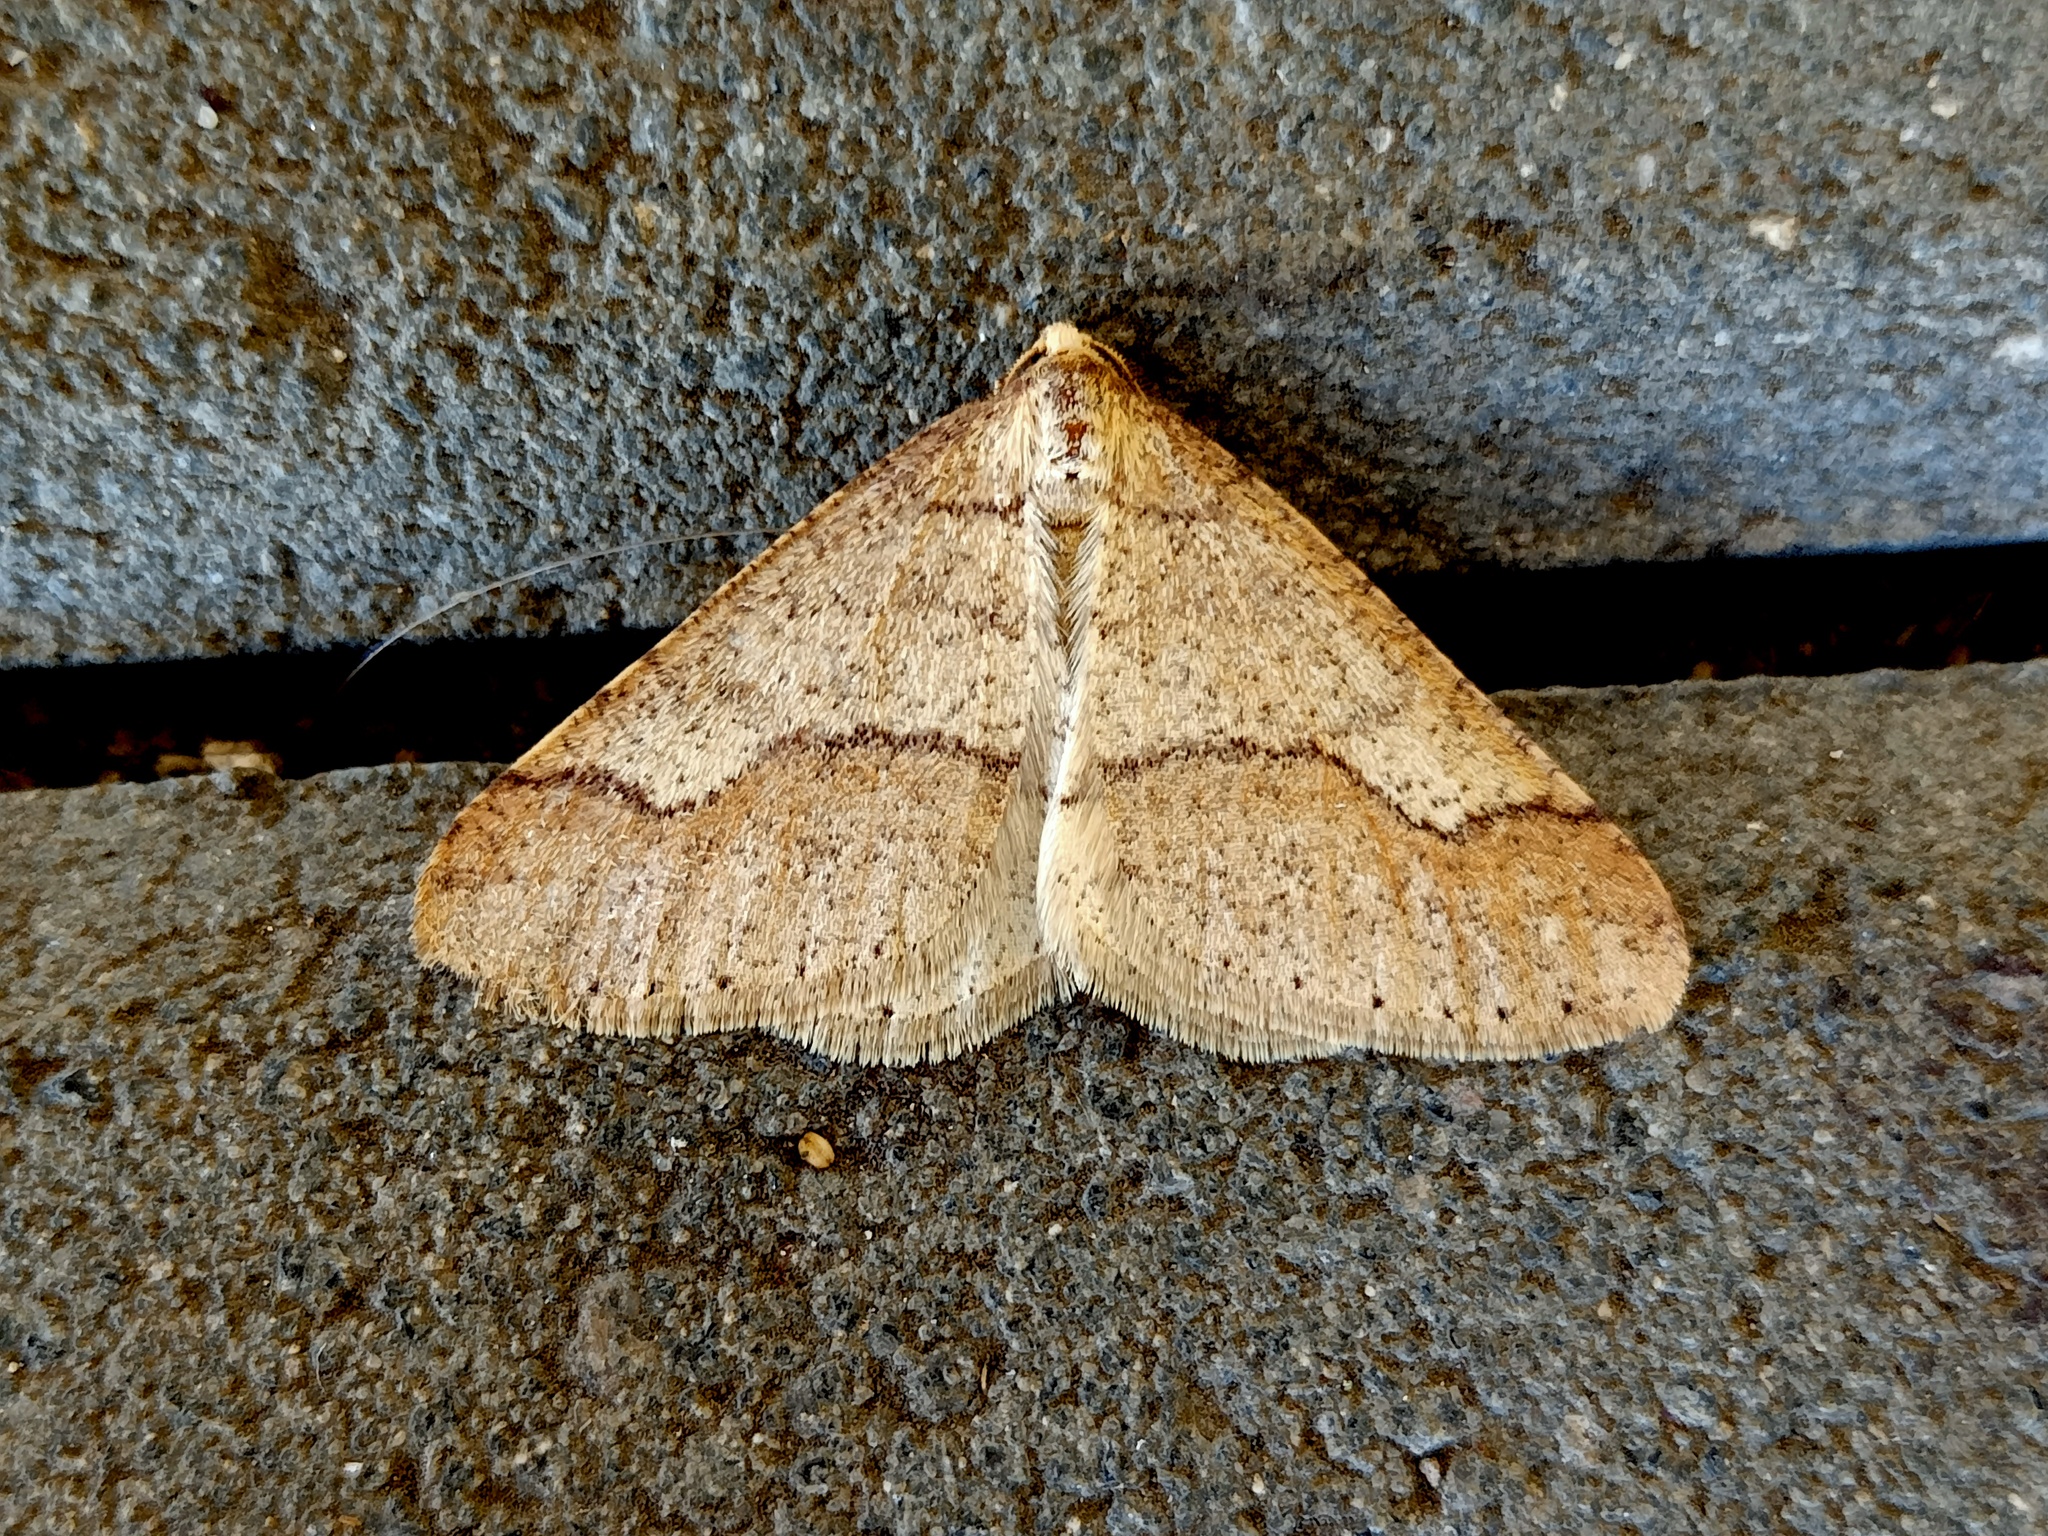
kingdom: Animalia
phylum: Arthropoda
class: Insecta
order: Lepidoptera
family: Geometridae
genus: Agriopis
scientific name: Agriopis marginaria
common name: Dotted border
